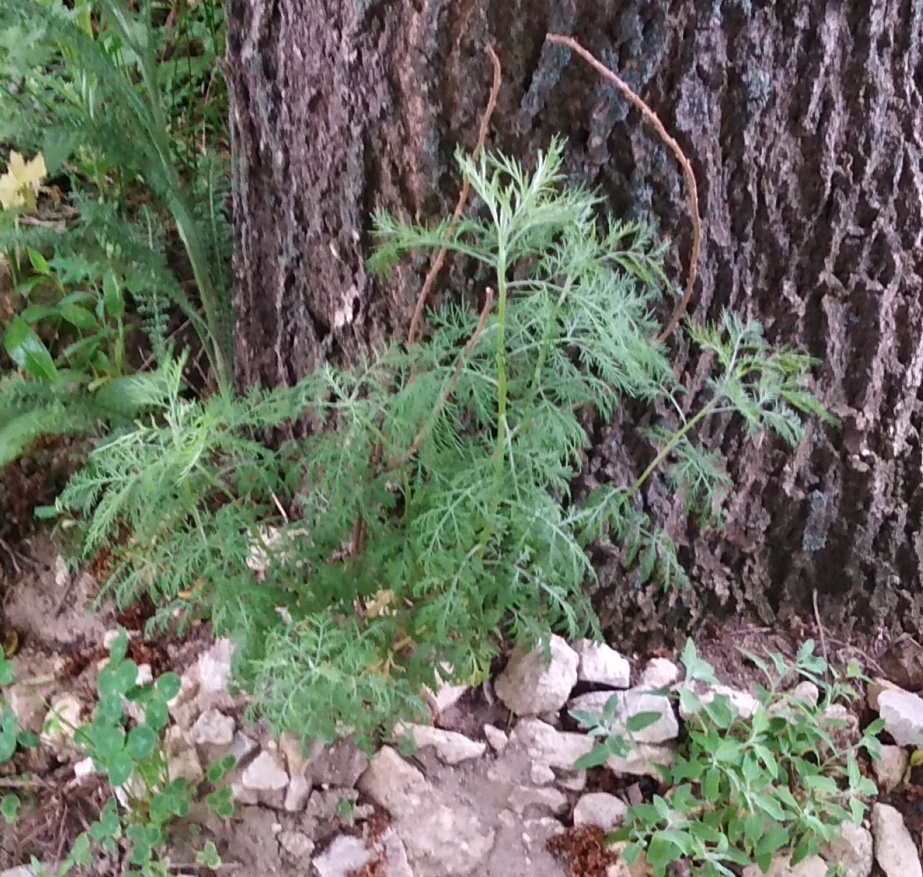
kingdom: Plantae
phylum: Tracheophyta
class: Magnoliopsida
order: Asterales
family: Asteraceae
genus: Artemisia
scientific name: Artemisia abrotanum
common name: Southernwood
